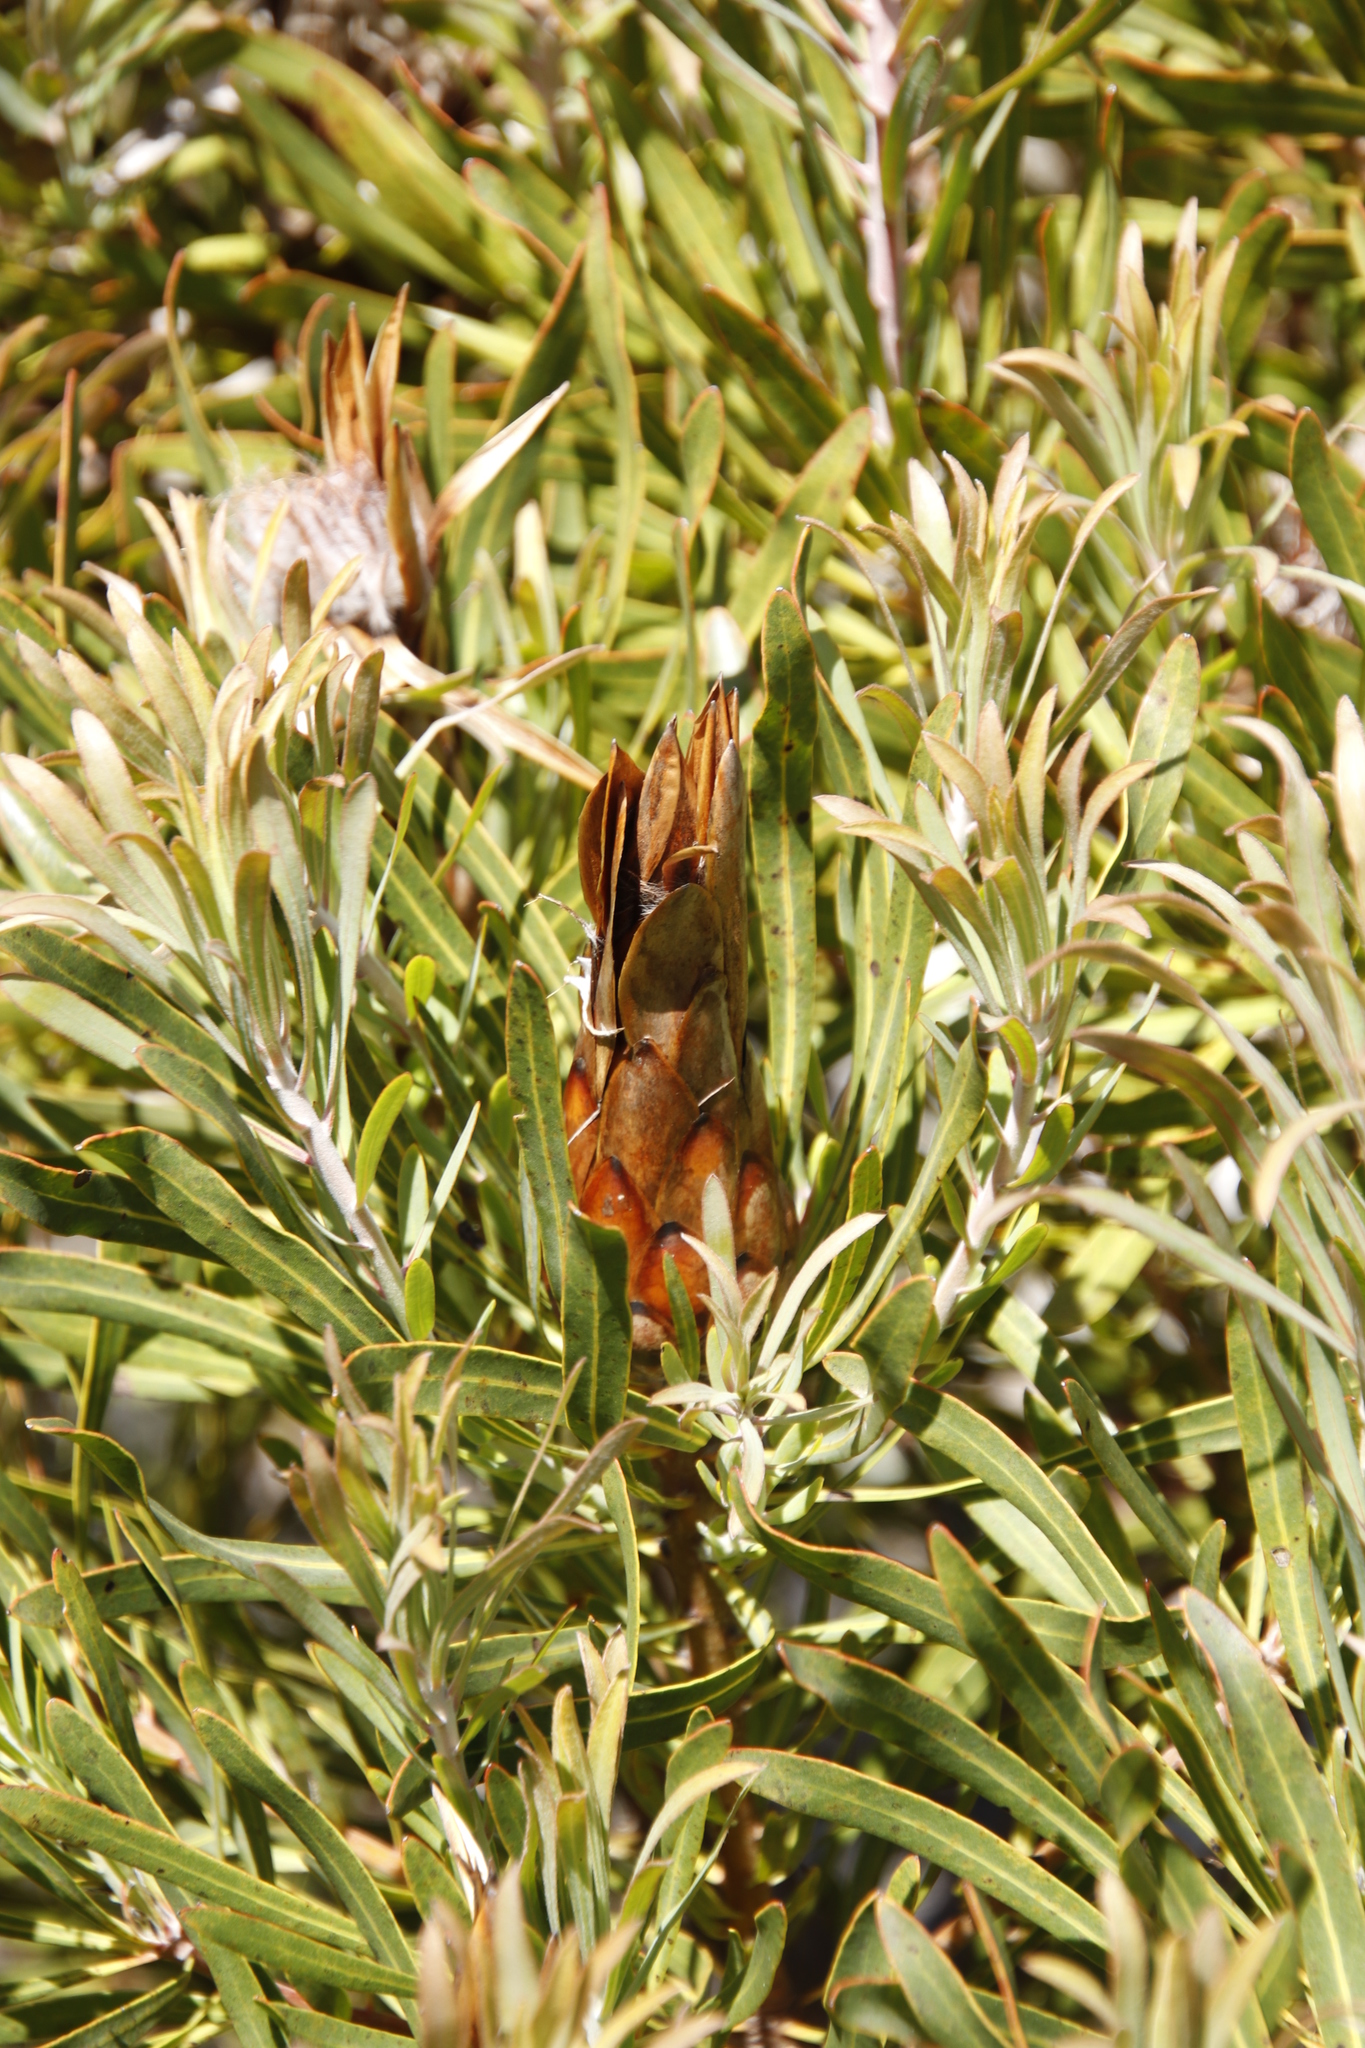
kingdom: Plantae
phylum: Tracheophyta
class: Magnoliopsida
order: Proteales
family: Proteaceae
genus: Protea
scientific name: Protea longifolia
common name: Long-leaf sugarbush
